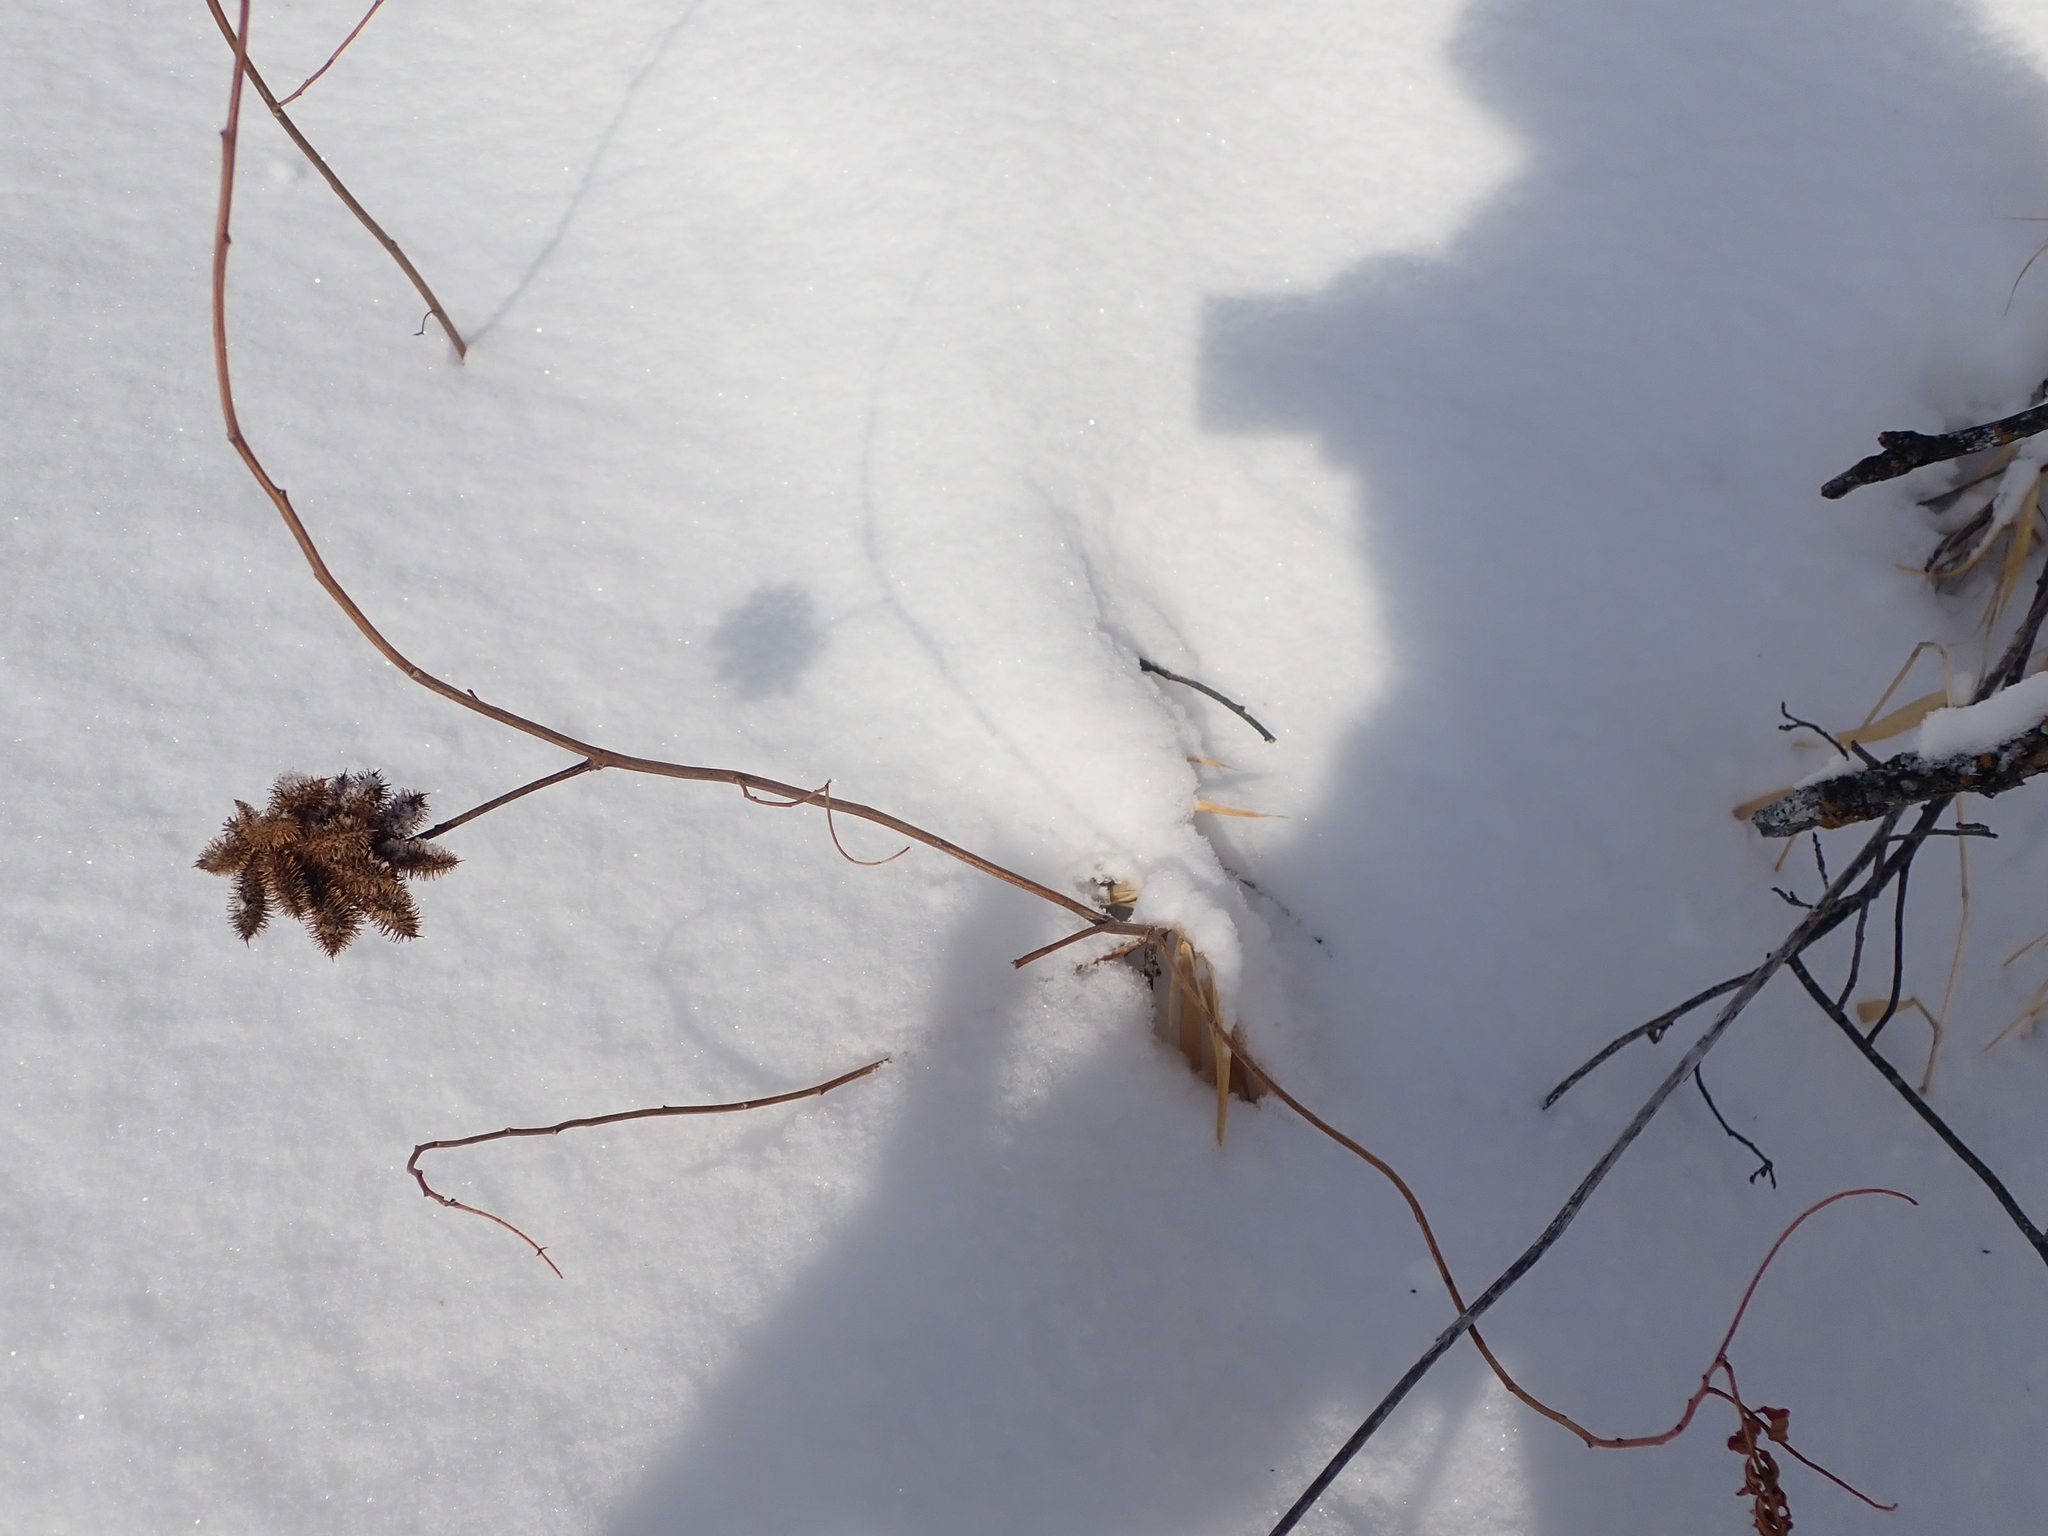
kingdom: Plantae
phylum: Tracheophyta
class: Magnoliopsida
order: Fabales
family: Fabaceae
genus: Glycyrrhiza
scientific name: Glycyrrhiza lepidota
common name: American liquorice
